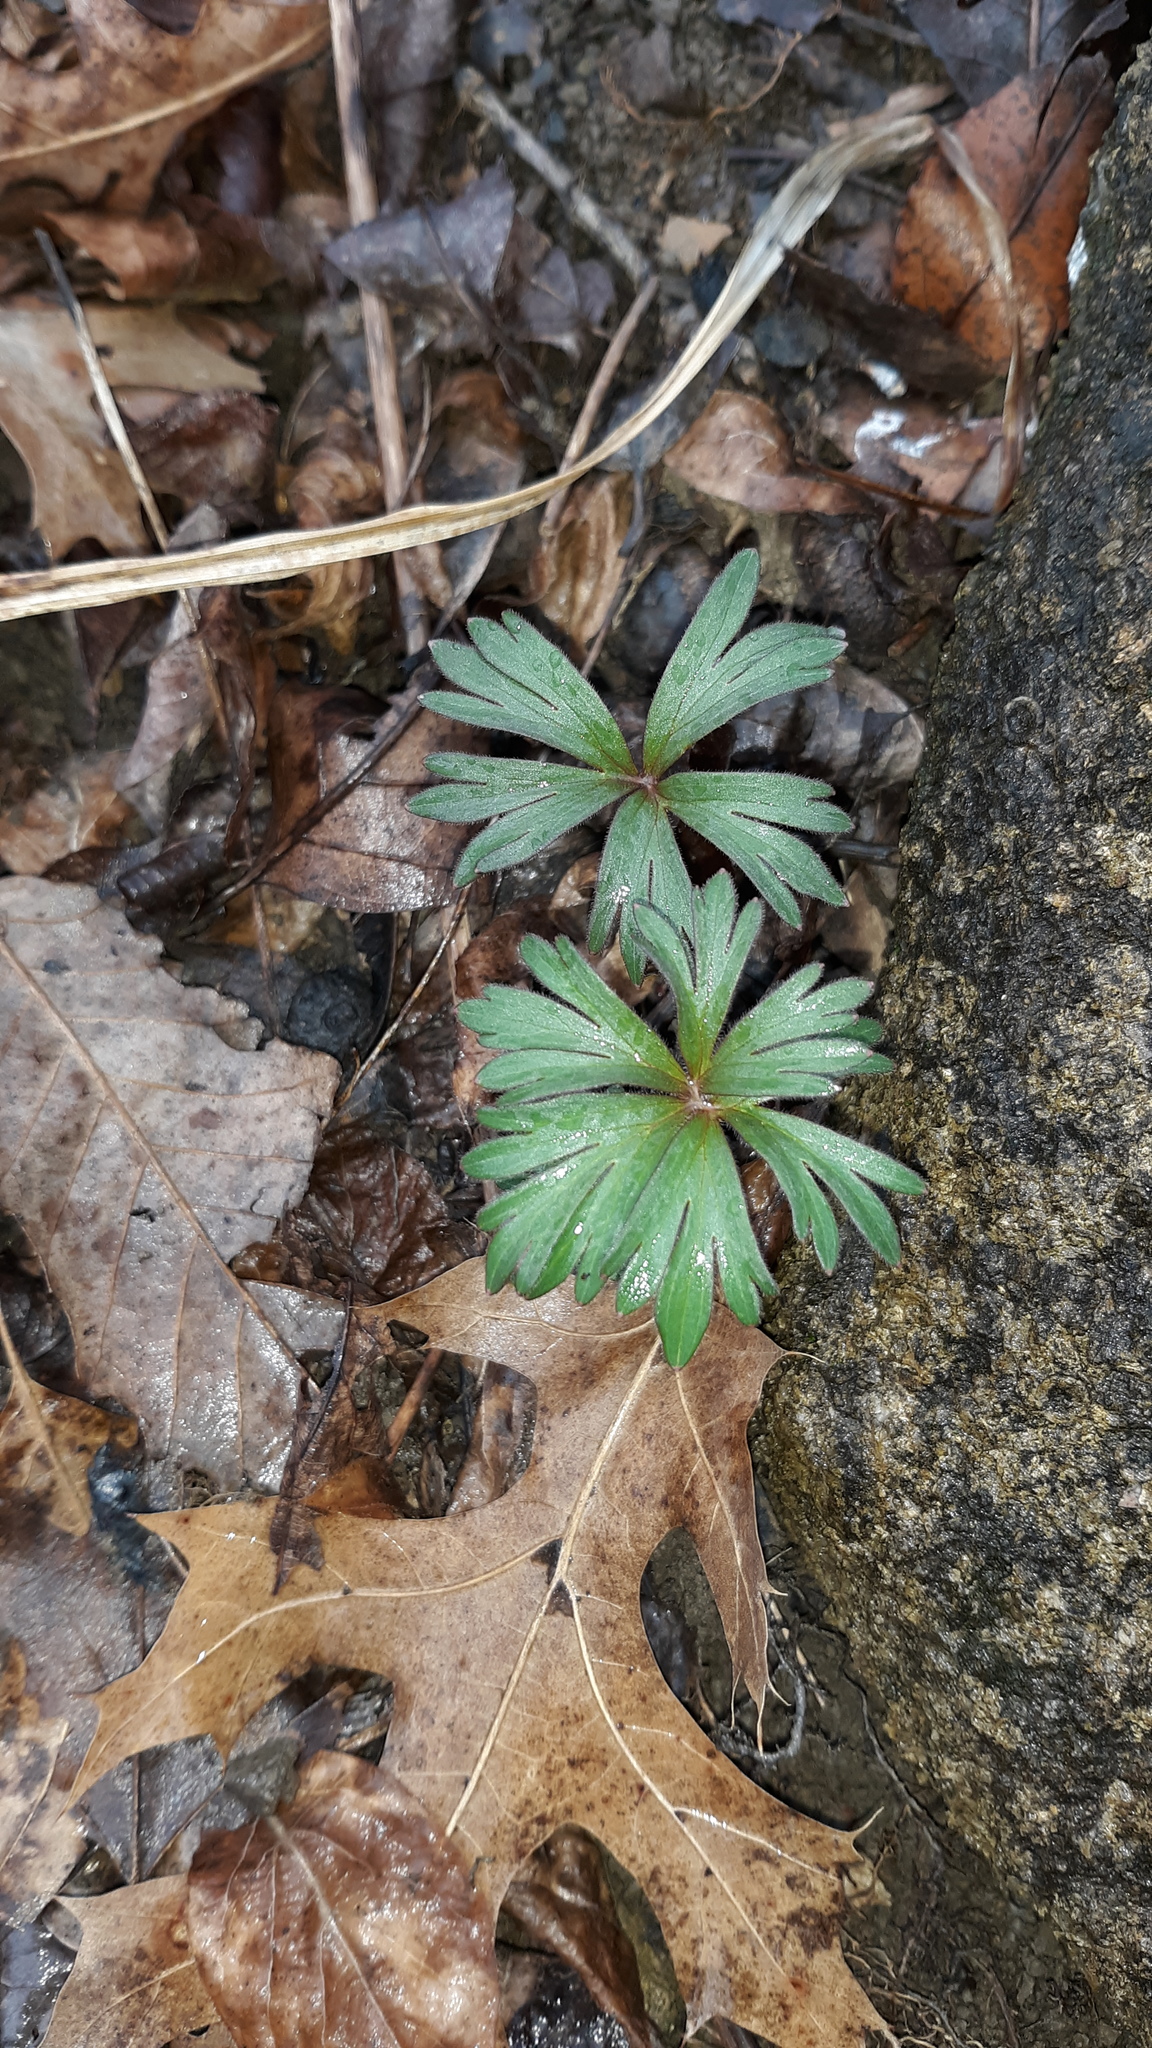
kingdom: Plantae
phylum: Tracheophyta
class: Magnoliopsida
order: Ranunculales
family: Ranunculaceae
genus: Delphinium
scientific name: Delphinium tricorne
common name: Dwarf larkspur
